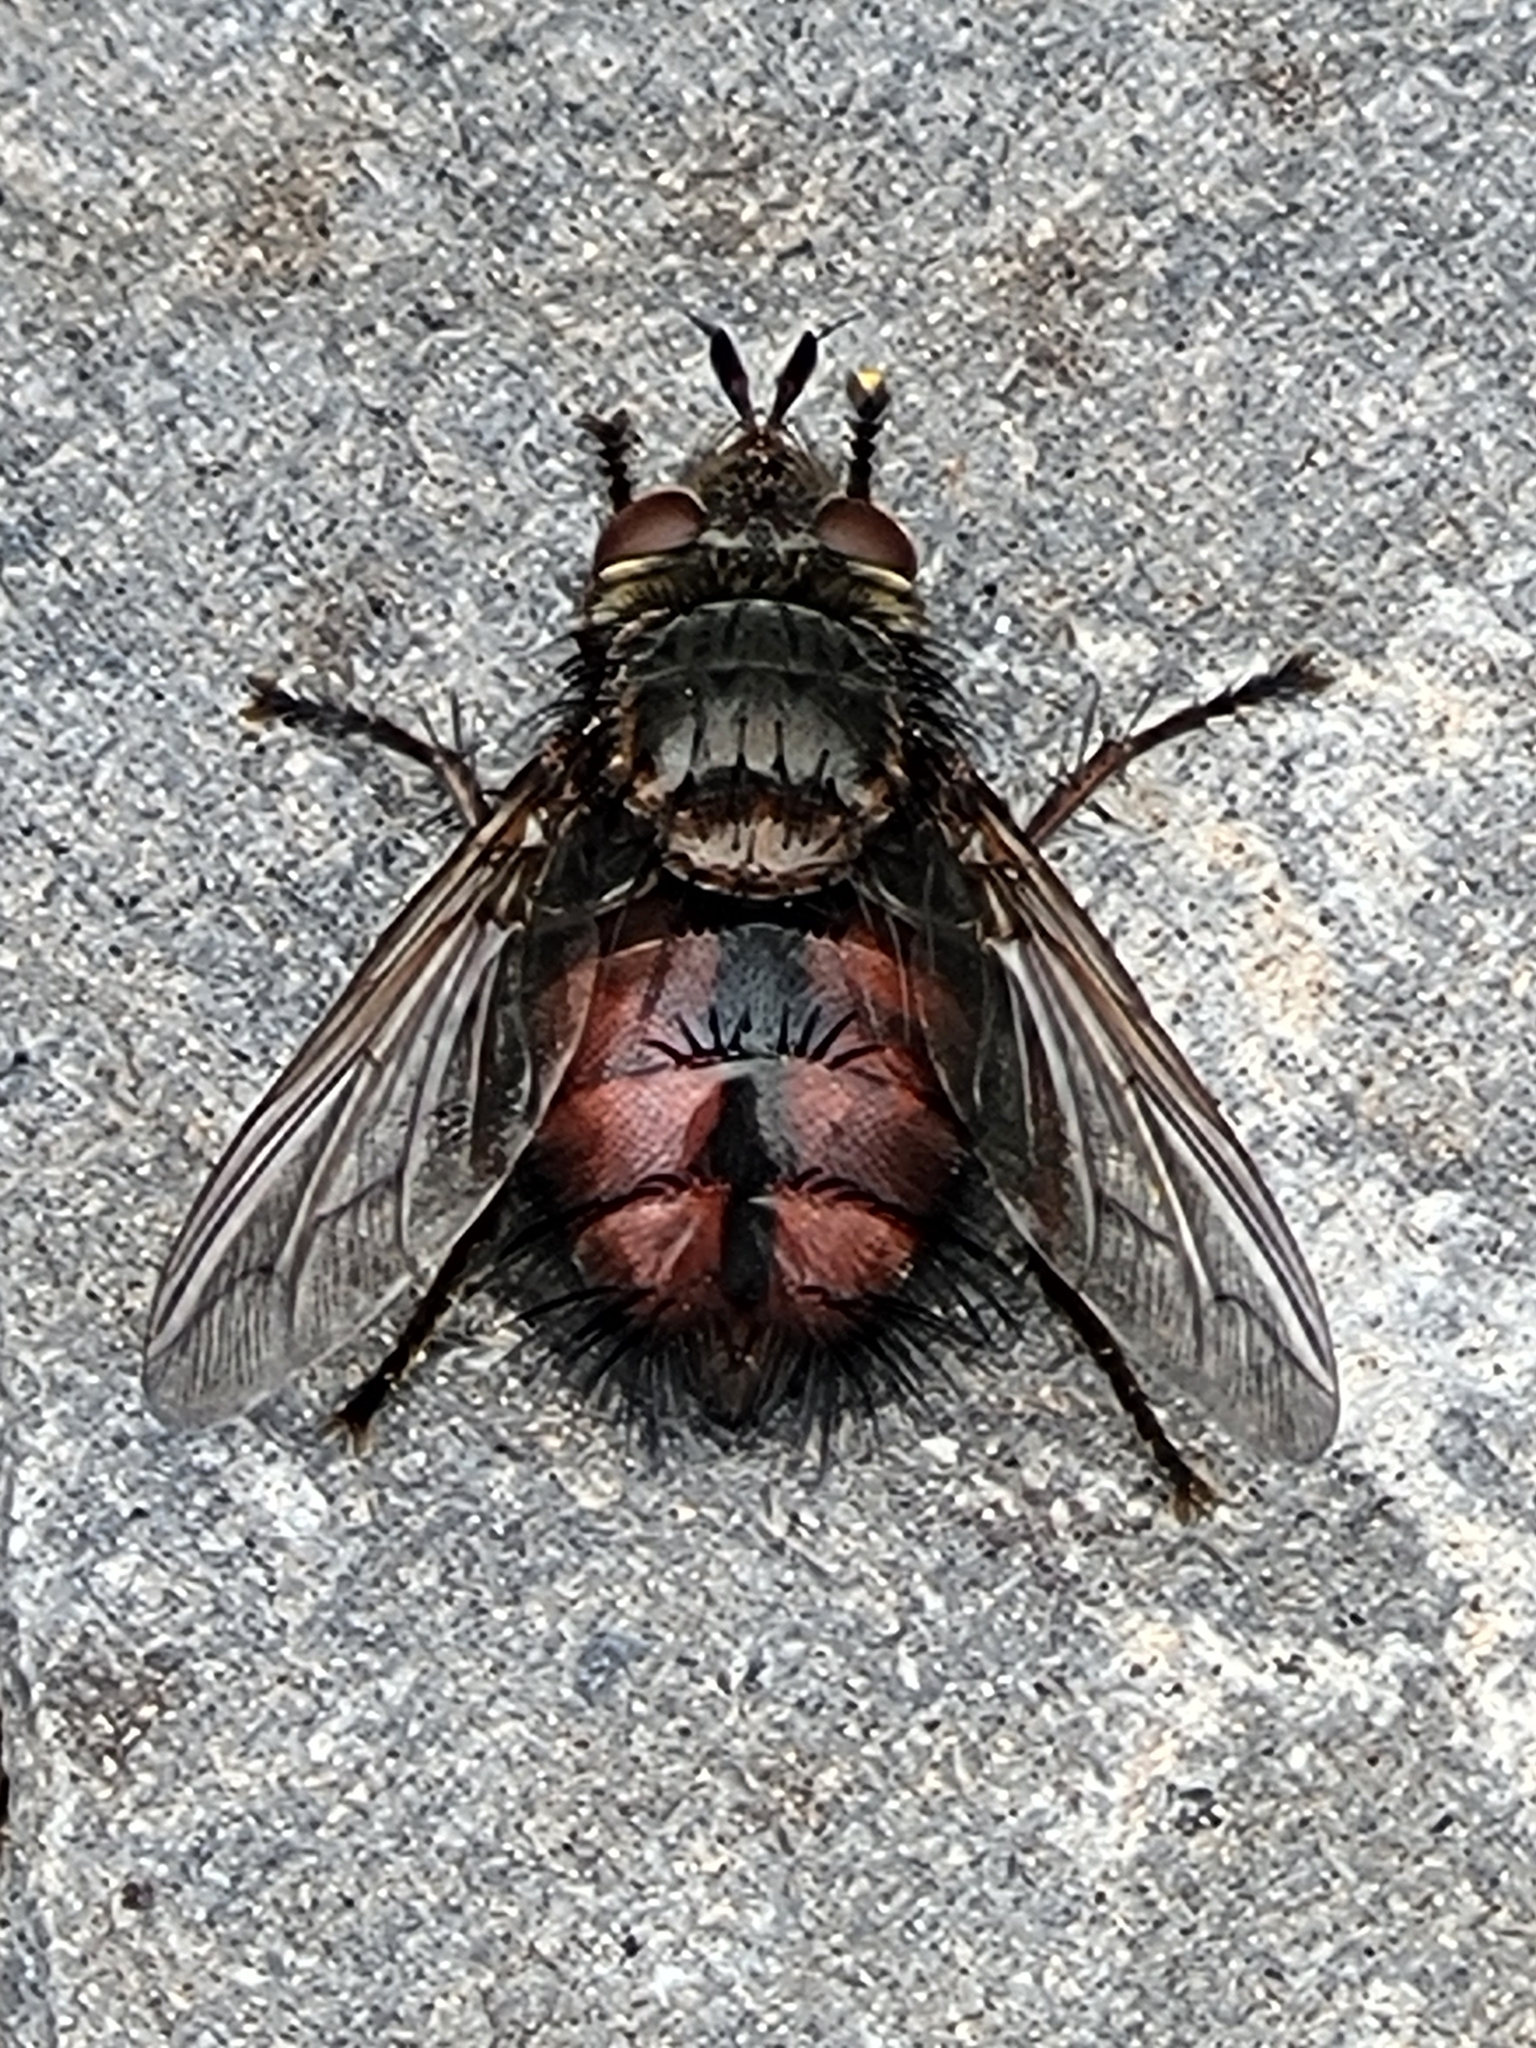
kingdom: Animalia
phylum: Arthropoda
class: Insecta
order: Diptera
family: Tachinidae
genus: Tachina
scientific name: Tachina canariensis
